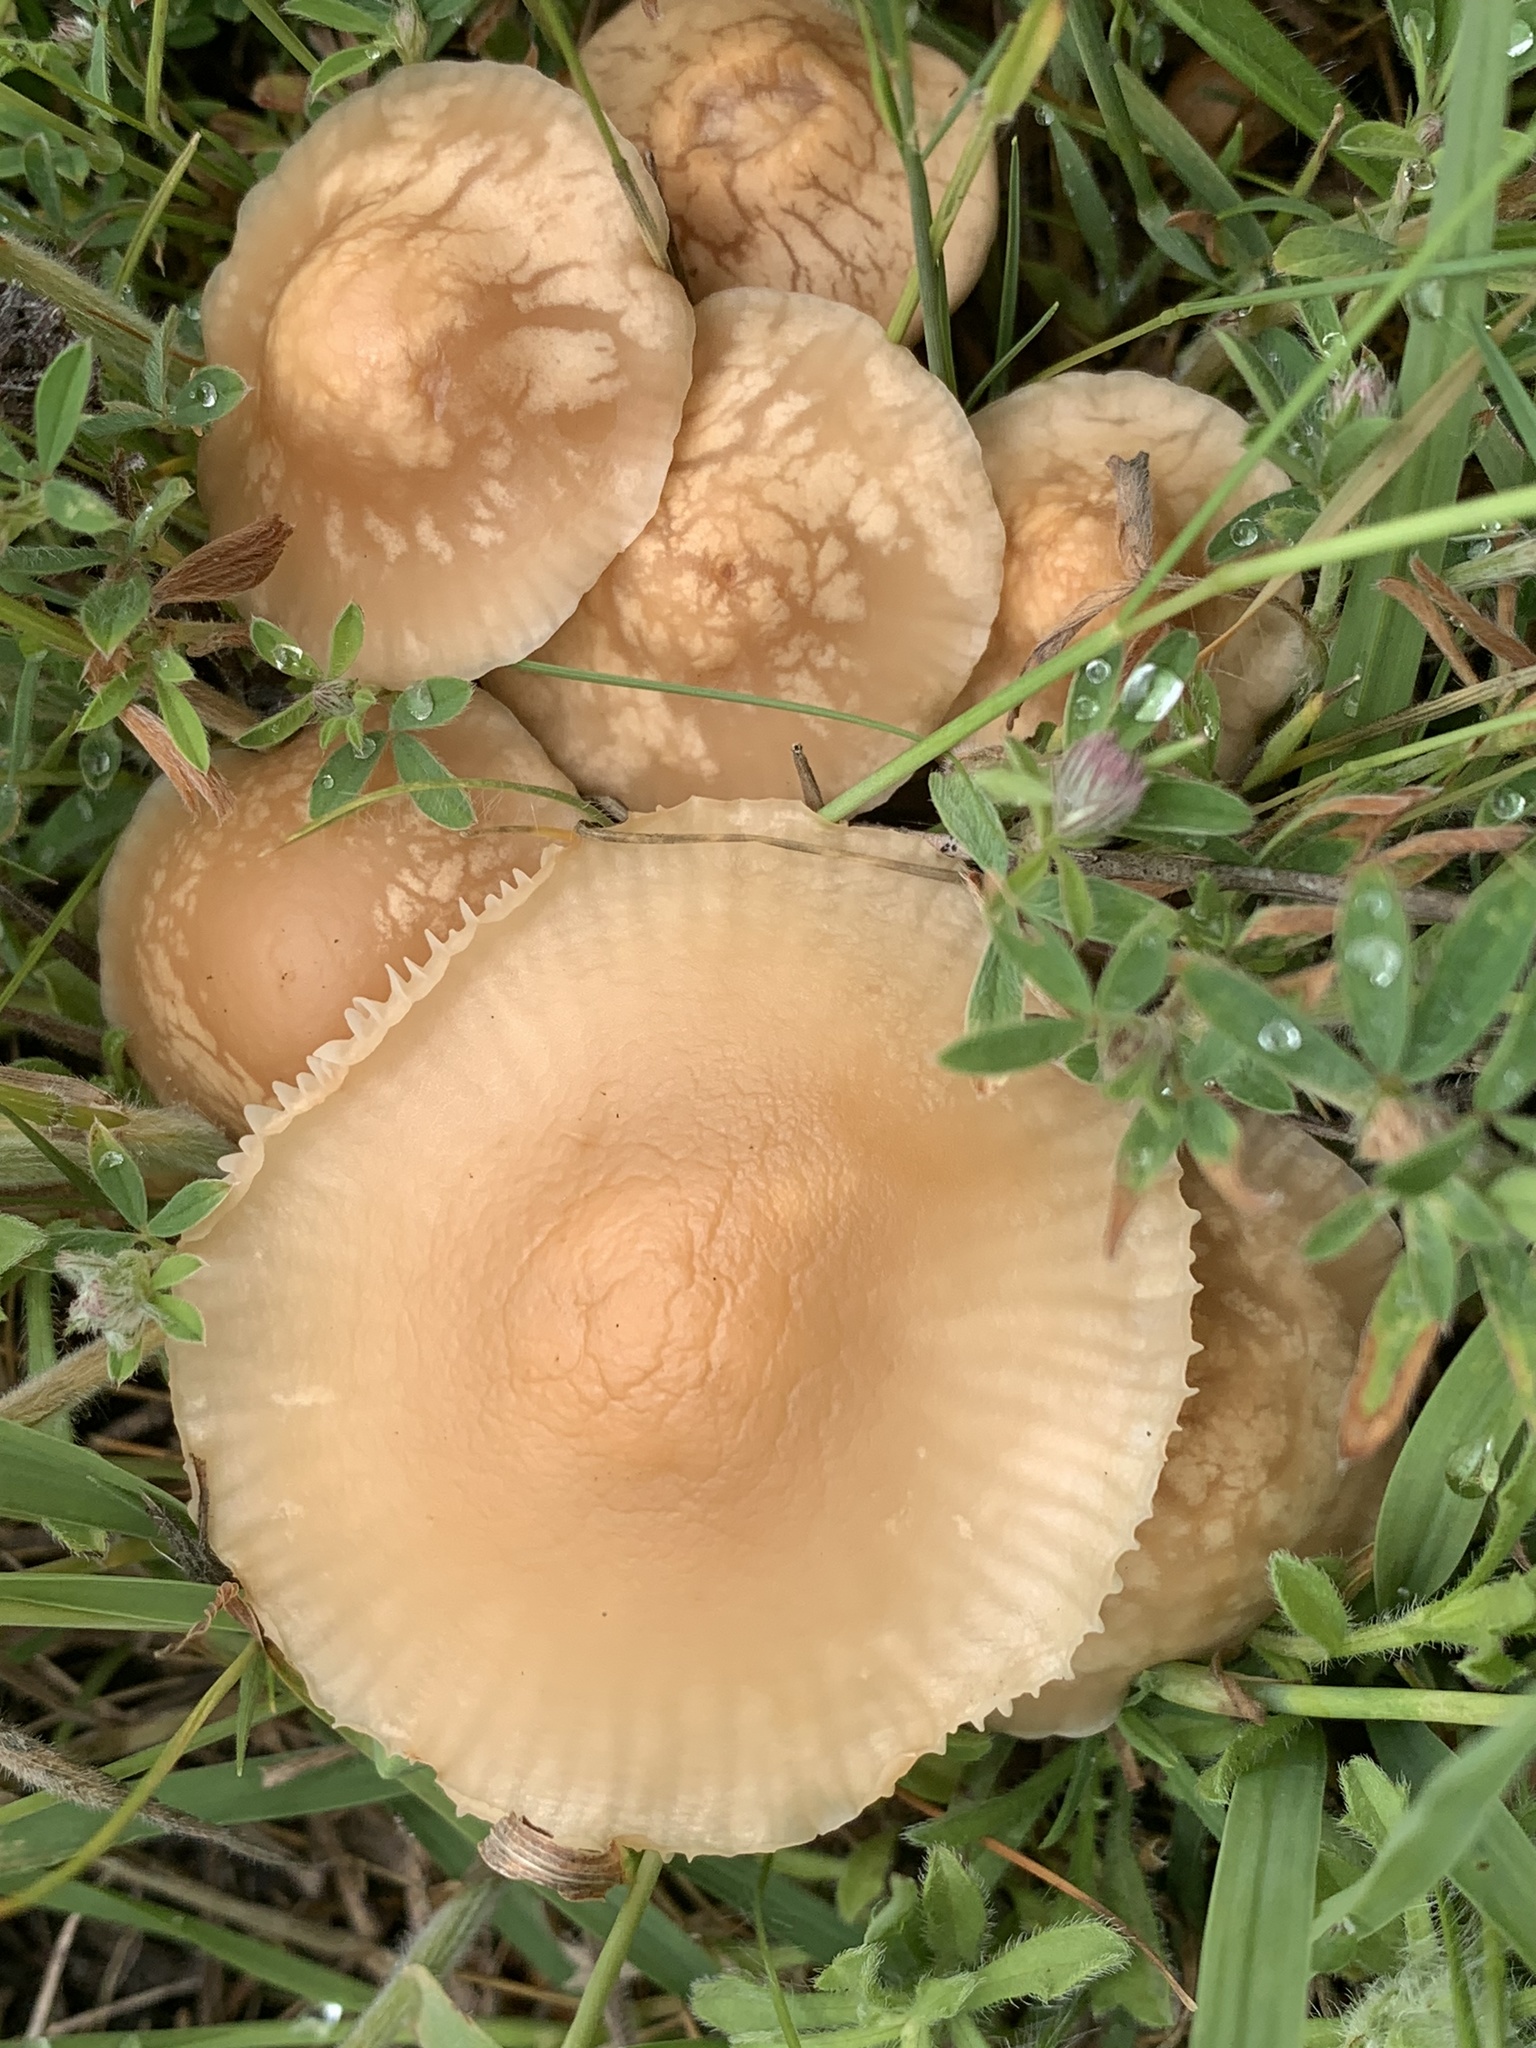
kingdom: Fungi
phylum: Basidiomycota
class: Agaricomycetes
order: Agaricales
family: Marasmiaceae
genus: Marasmius
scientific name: Marasmius oreades
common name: Fairy ring champignon
